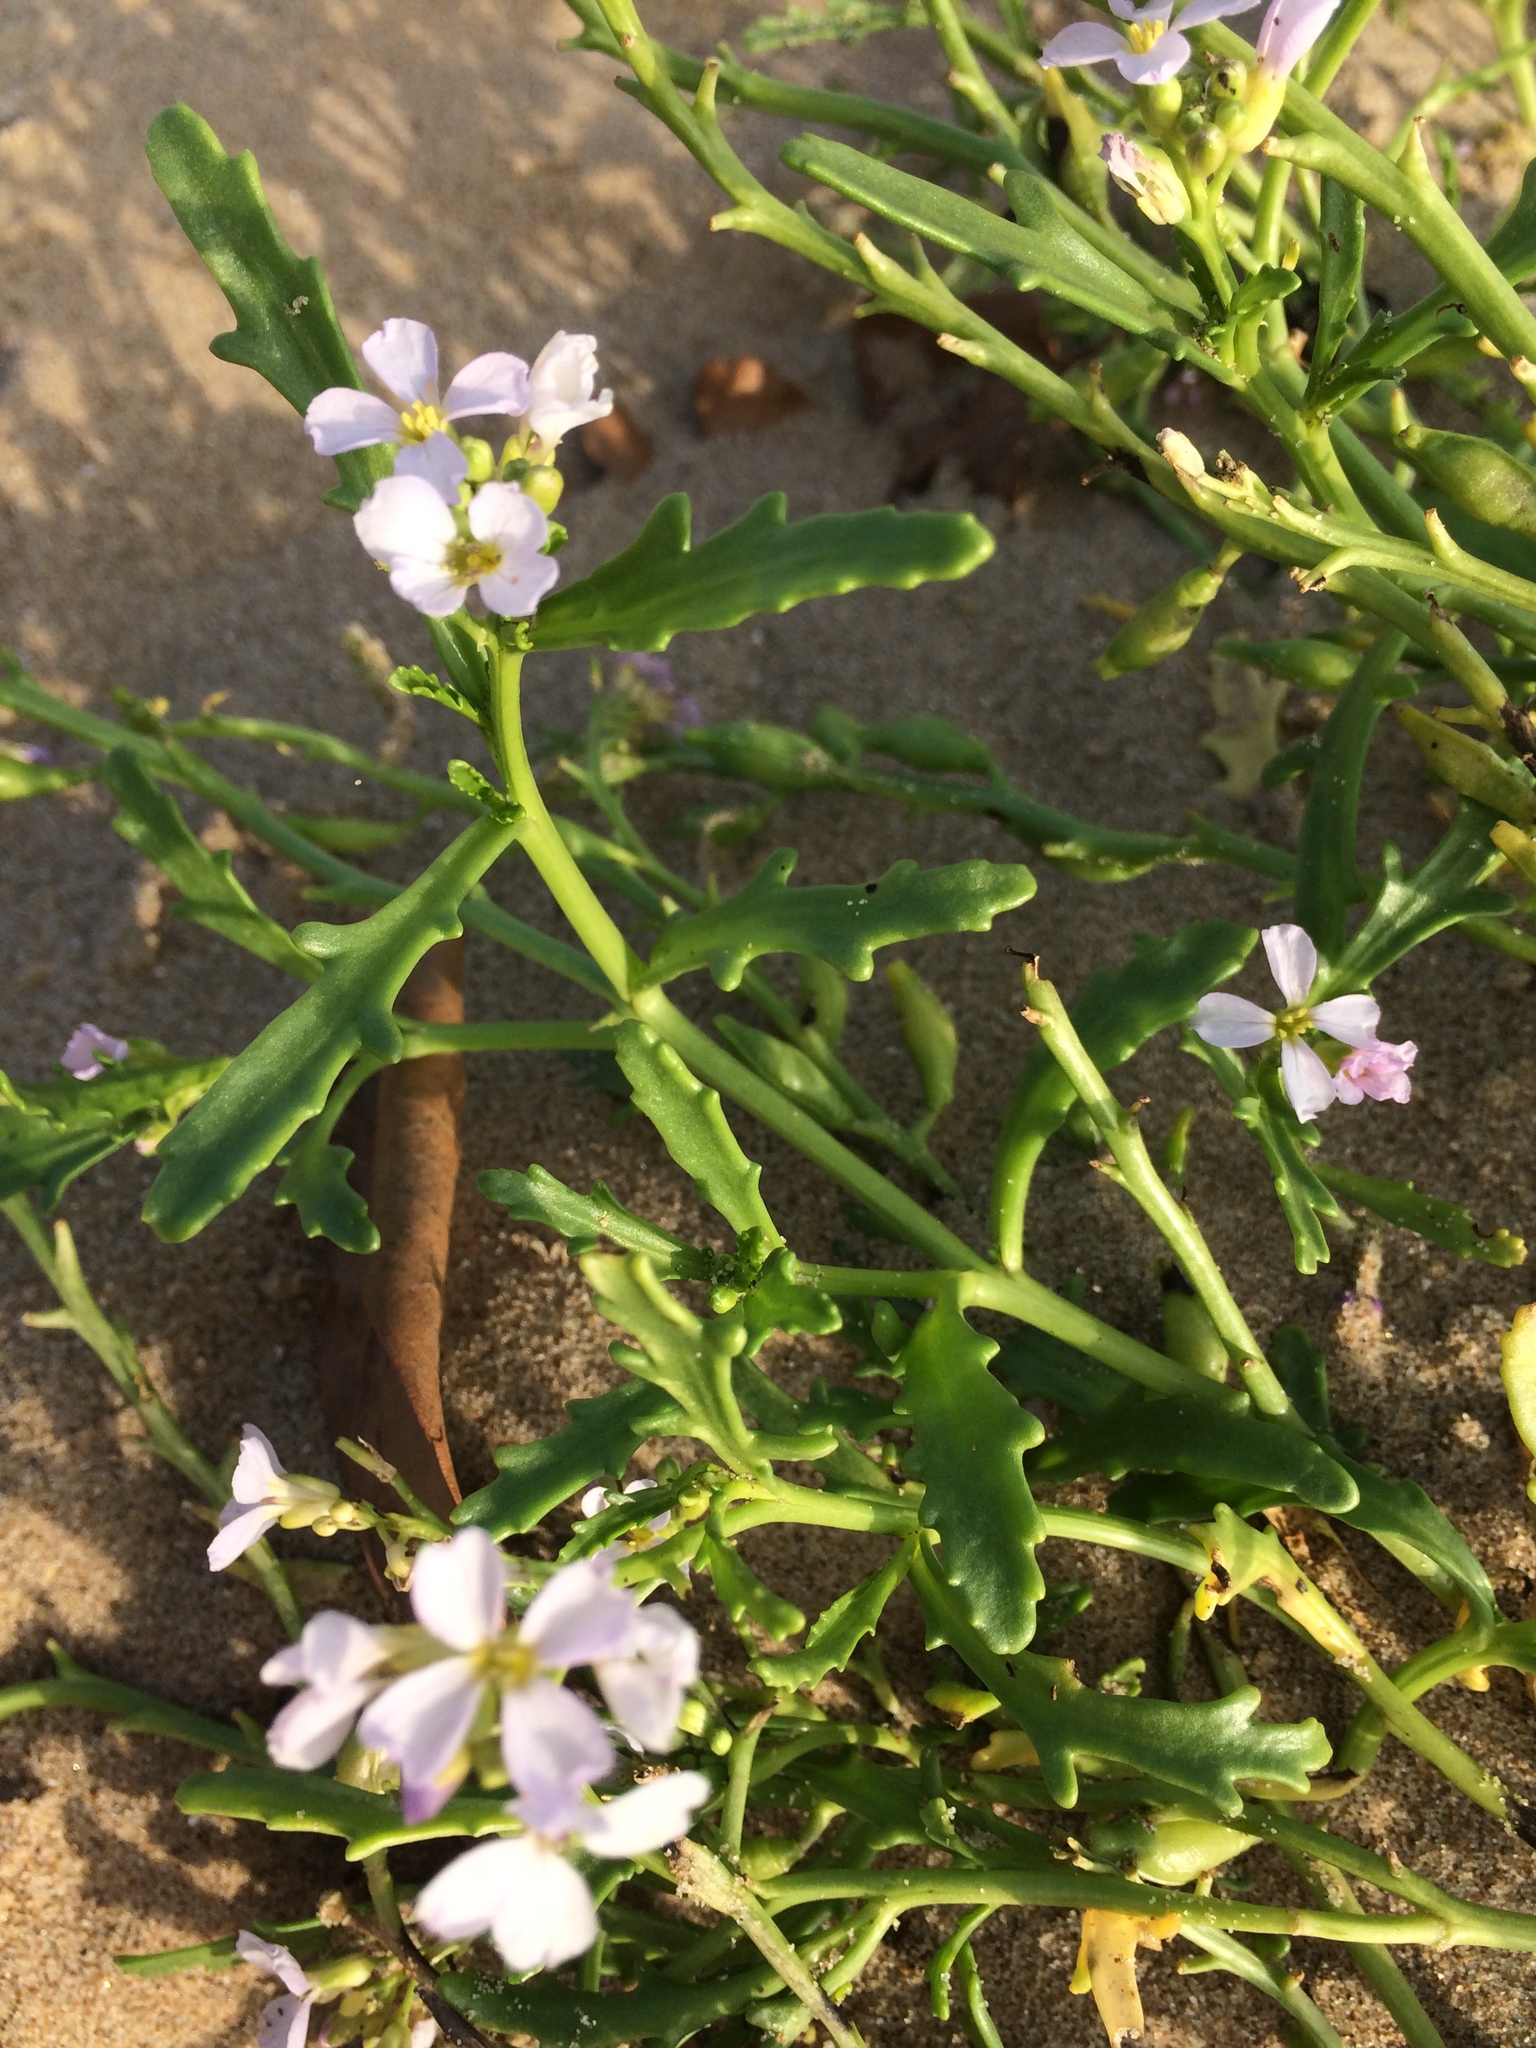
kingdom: Plantae
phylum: Tracheophyta
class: Magnoliopsida
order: Brassicales
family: Brassicaceae
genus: Cakile
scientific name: Cakile maritima
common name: Sea rocket
